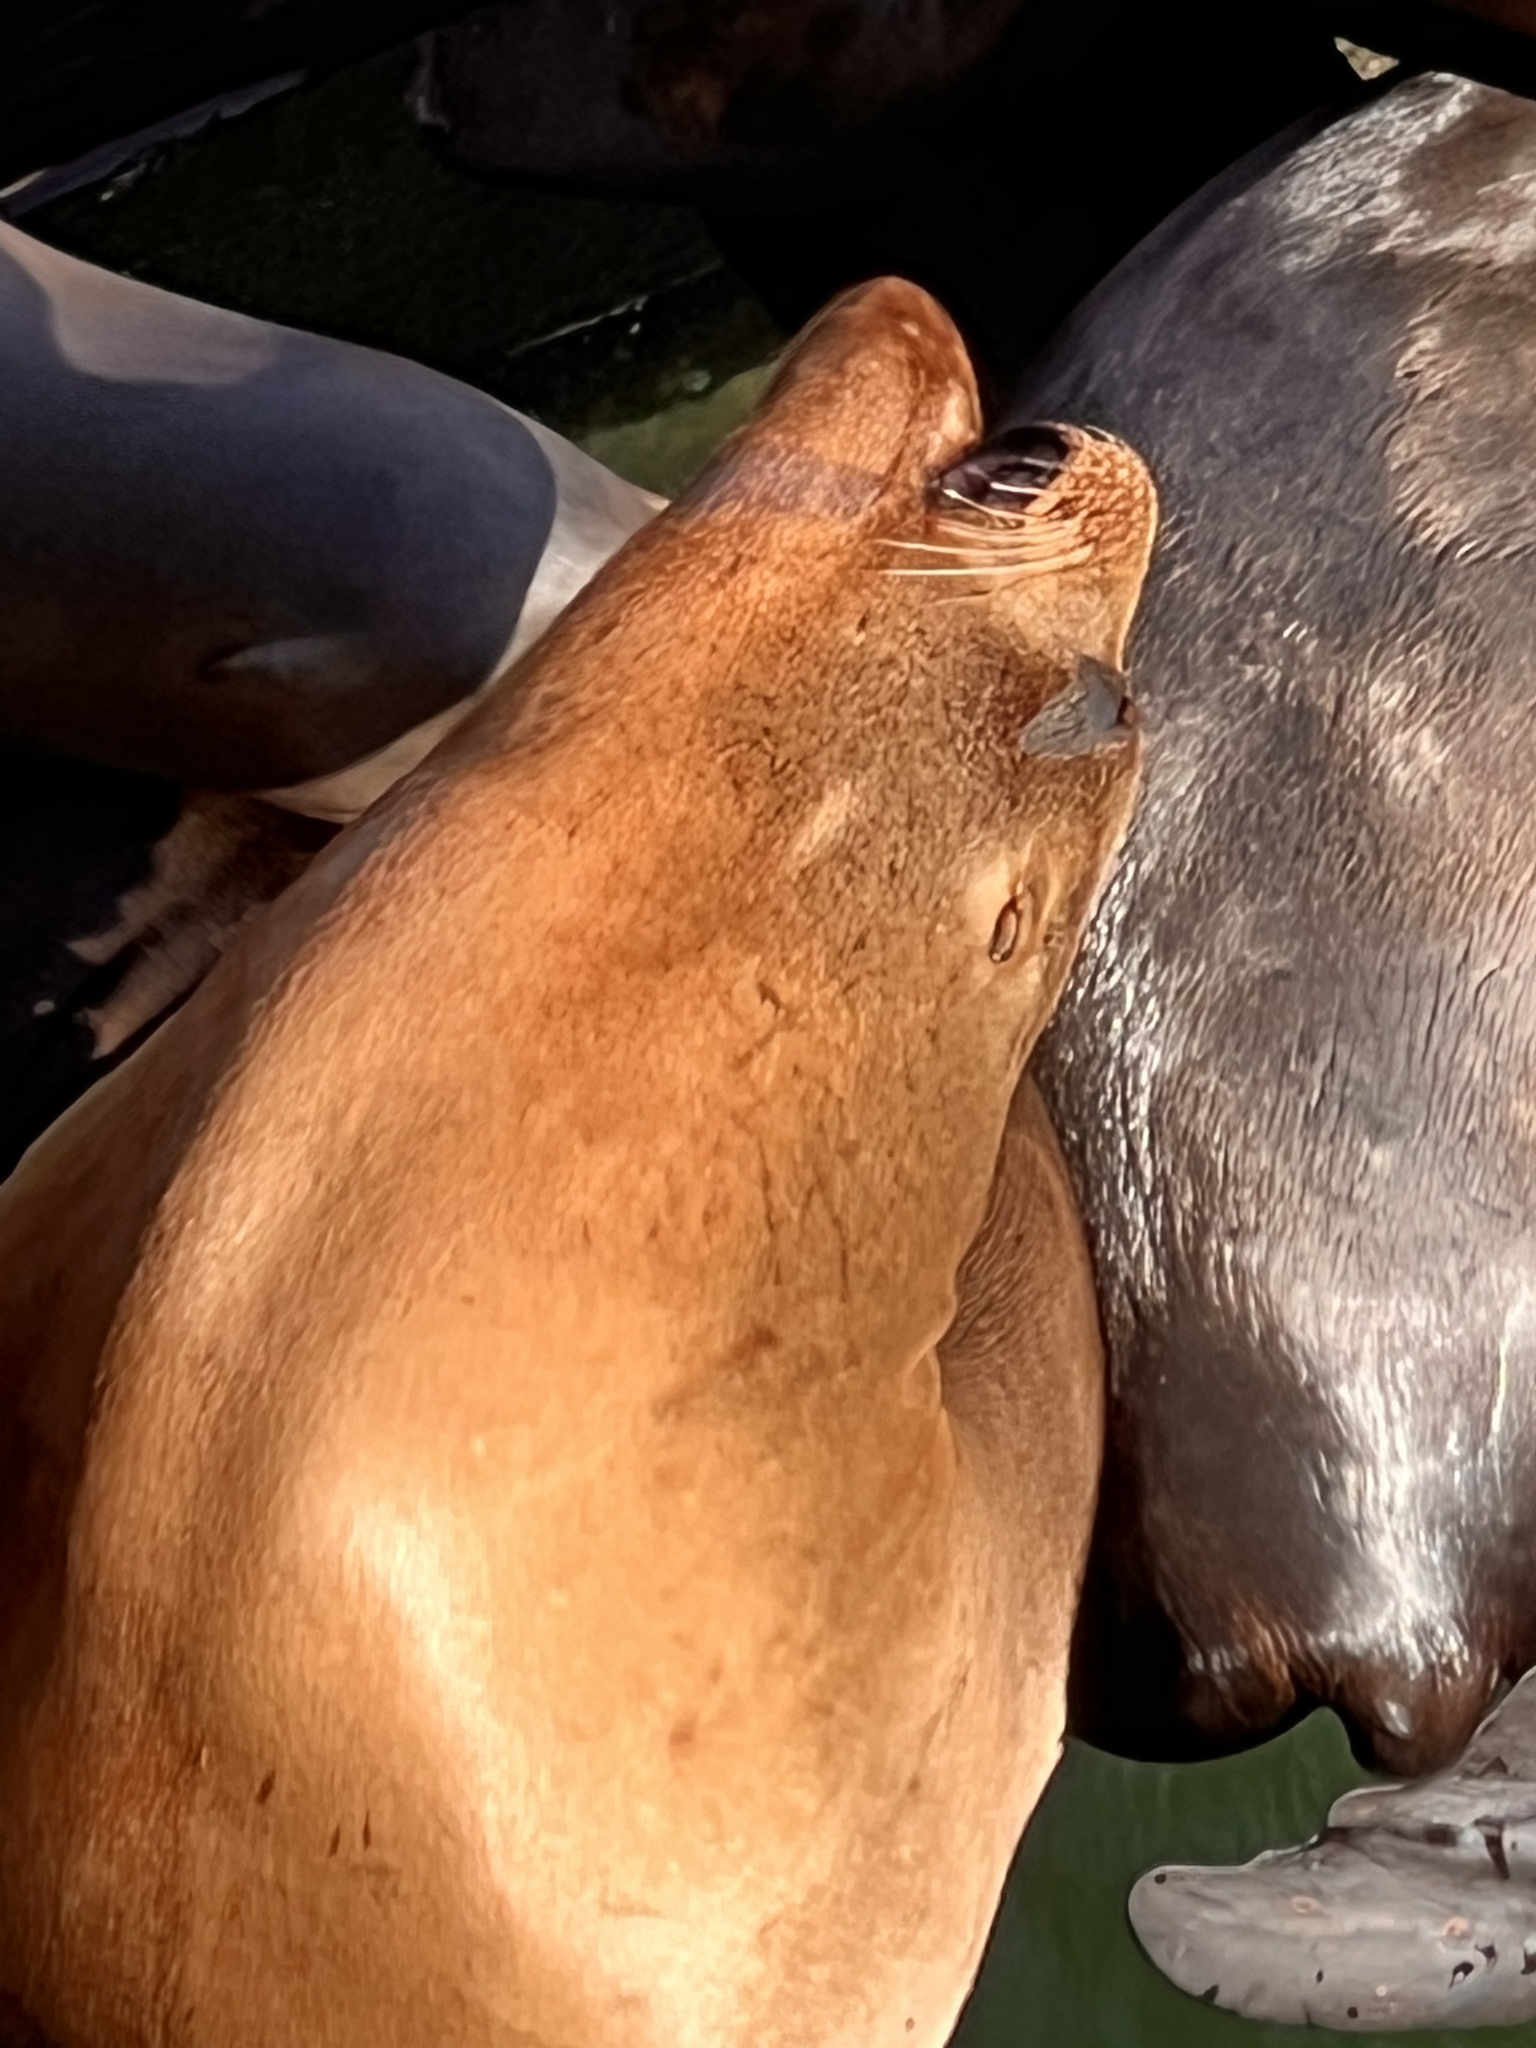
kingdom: Animalia
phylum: Chordata
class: Mammalia
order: Carnivora
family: Otariidae
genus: Zalophus
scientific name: Zalophus californianus
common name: California sea lion
